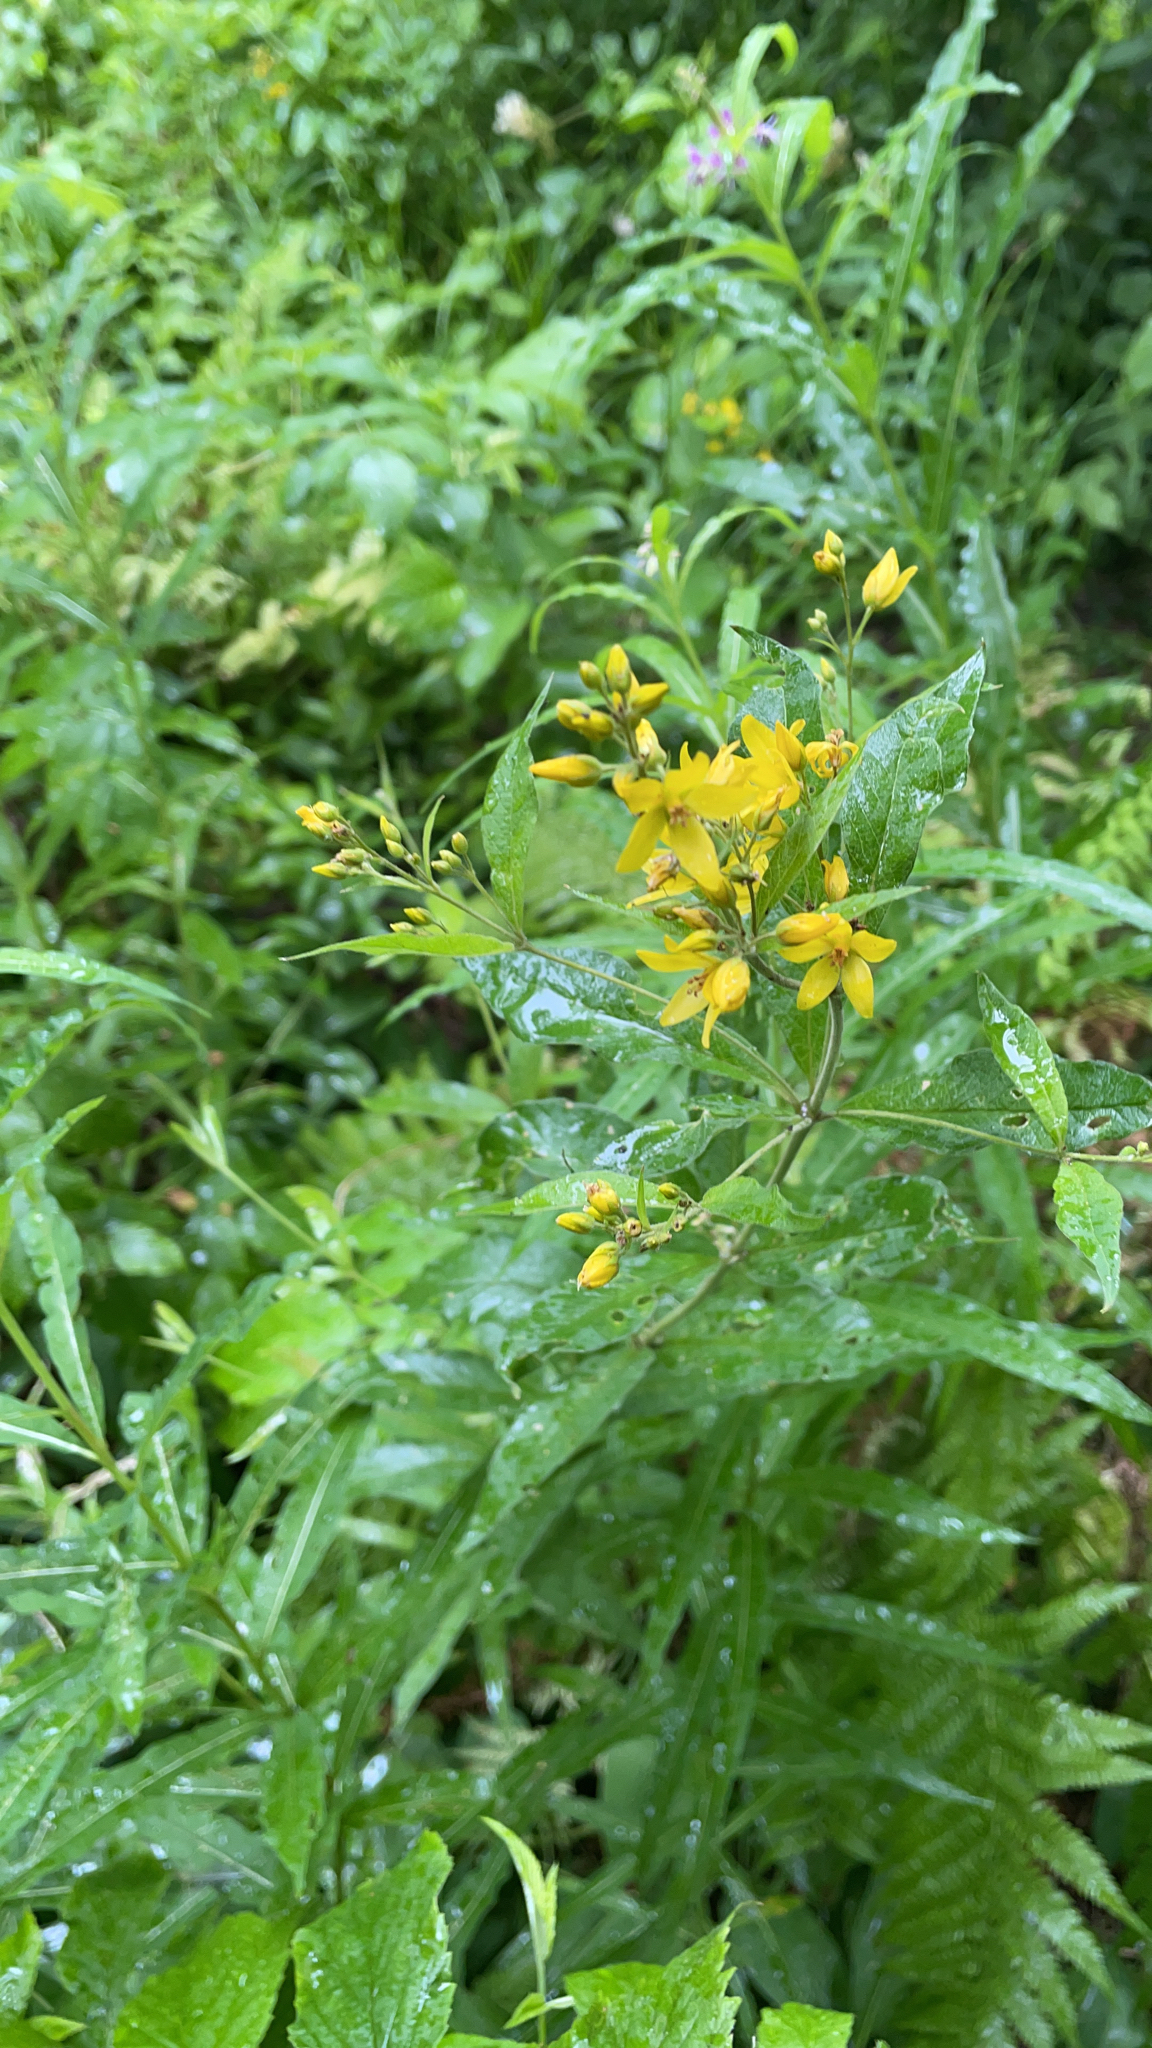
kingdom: Plantae
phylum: Tracheophyta
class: Magnoliopsida
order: Ericales
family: Primulaceae
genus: Lysimachia
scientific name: Lysimachia vulgaris
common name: Yellow loosestrife
